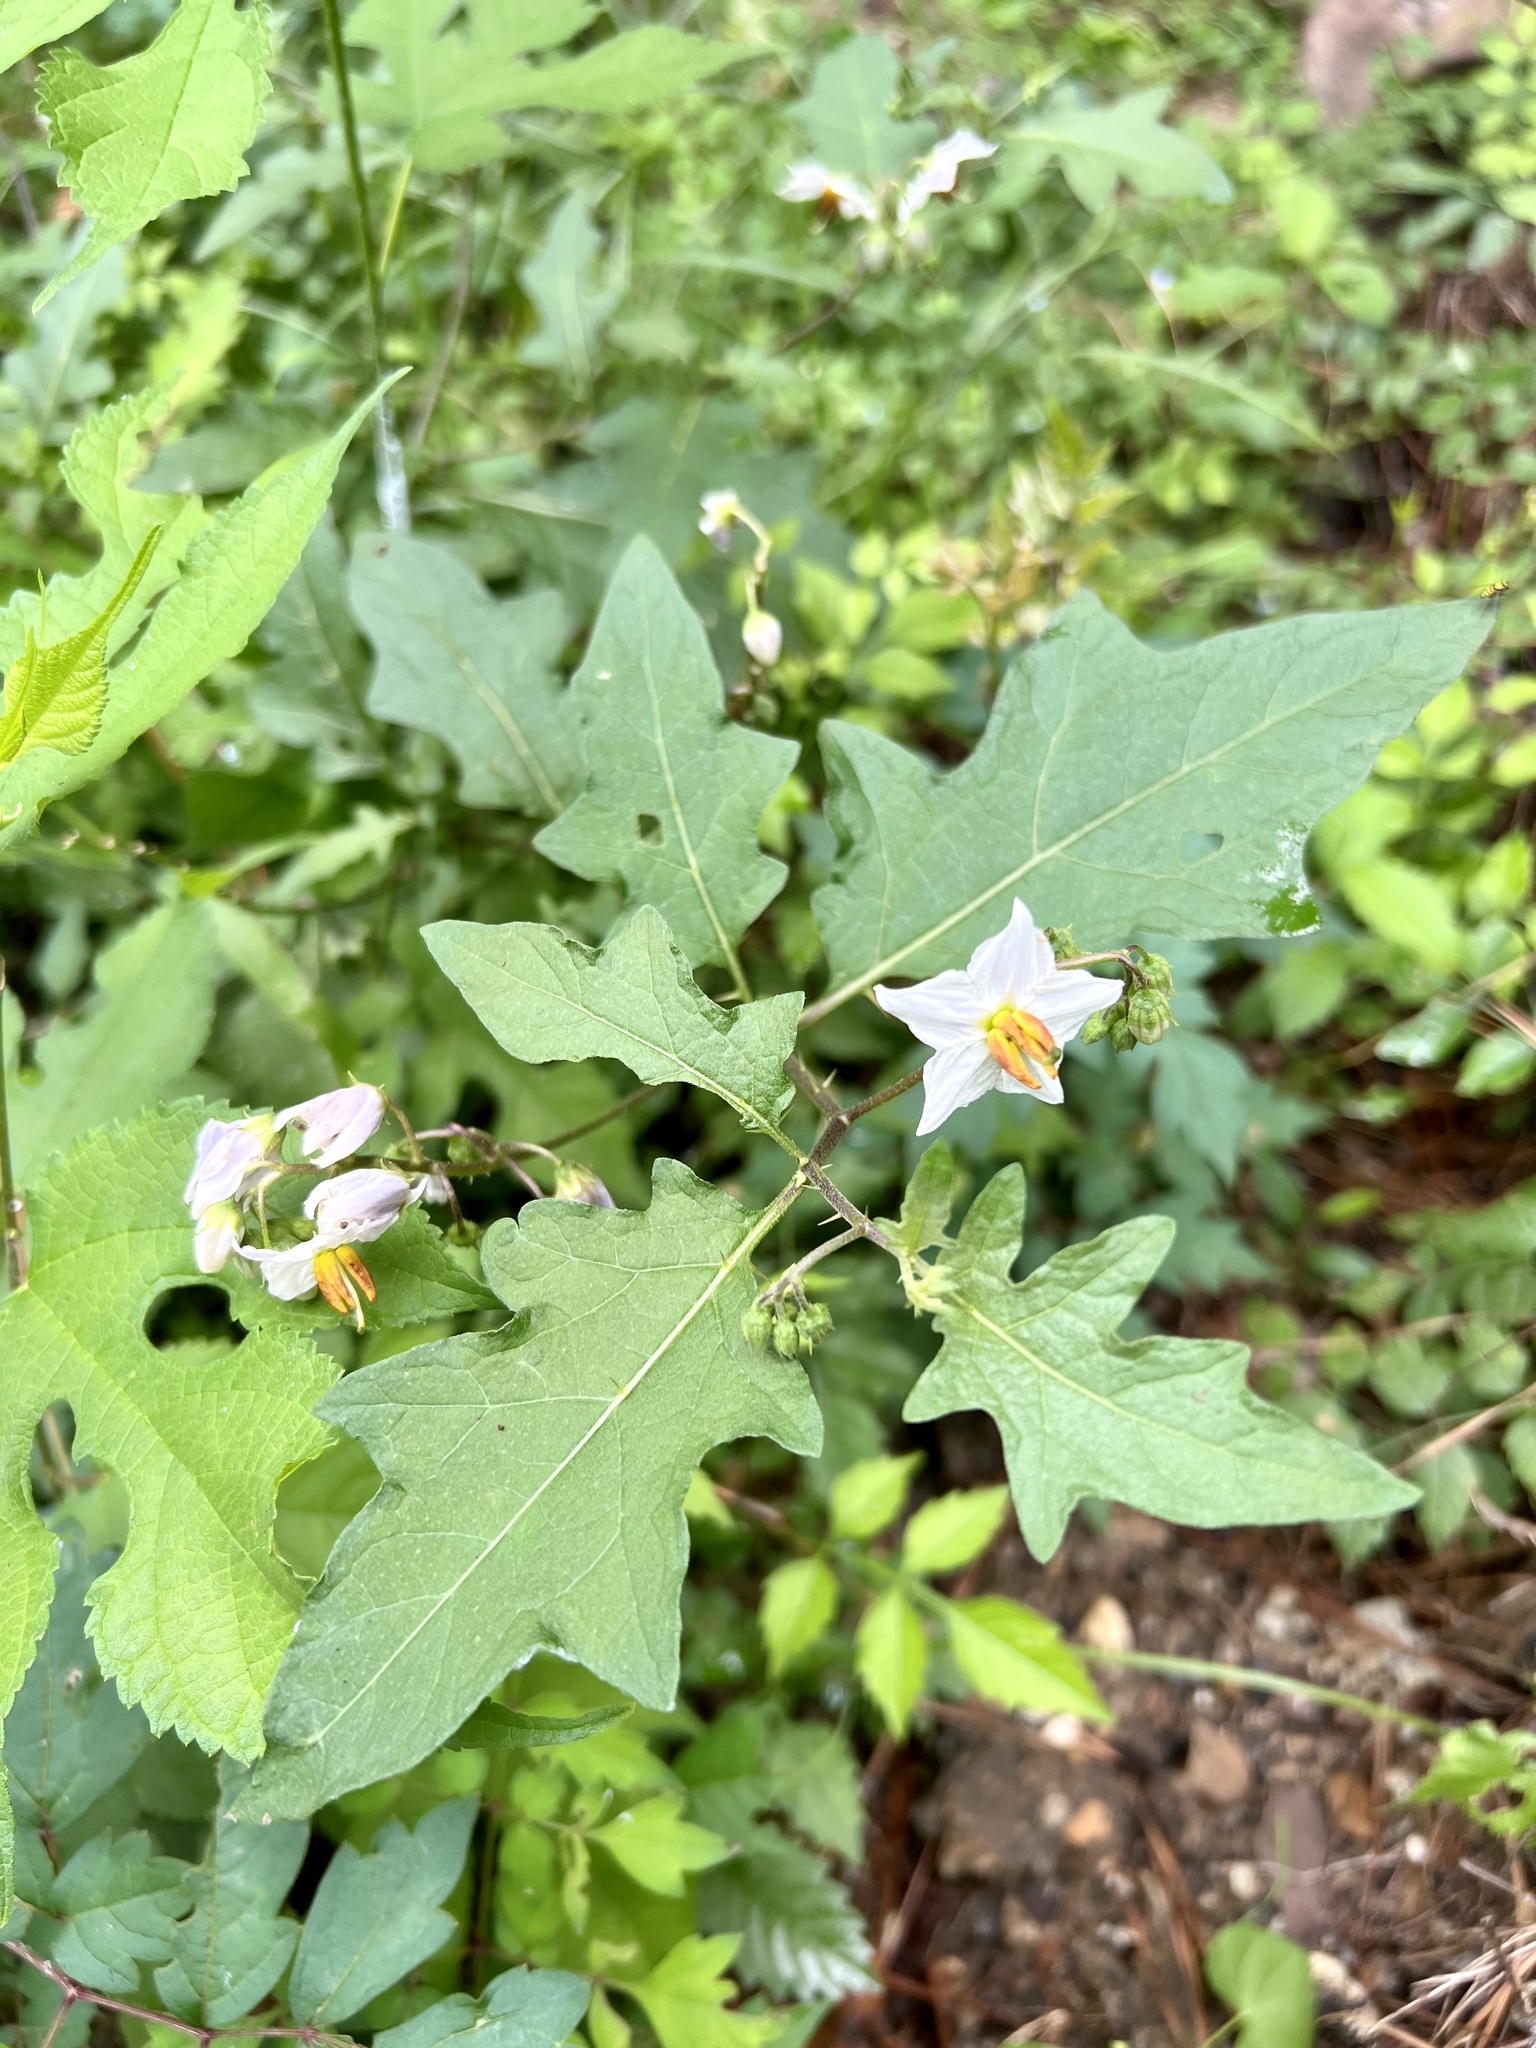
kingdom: Plantae
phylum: Tracheophyta
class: Magnoliopsida
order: Solanales
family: Solanaceae
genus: Solanum
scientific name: Solanum carolinense
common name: Horse-nettle
